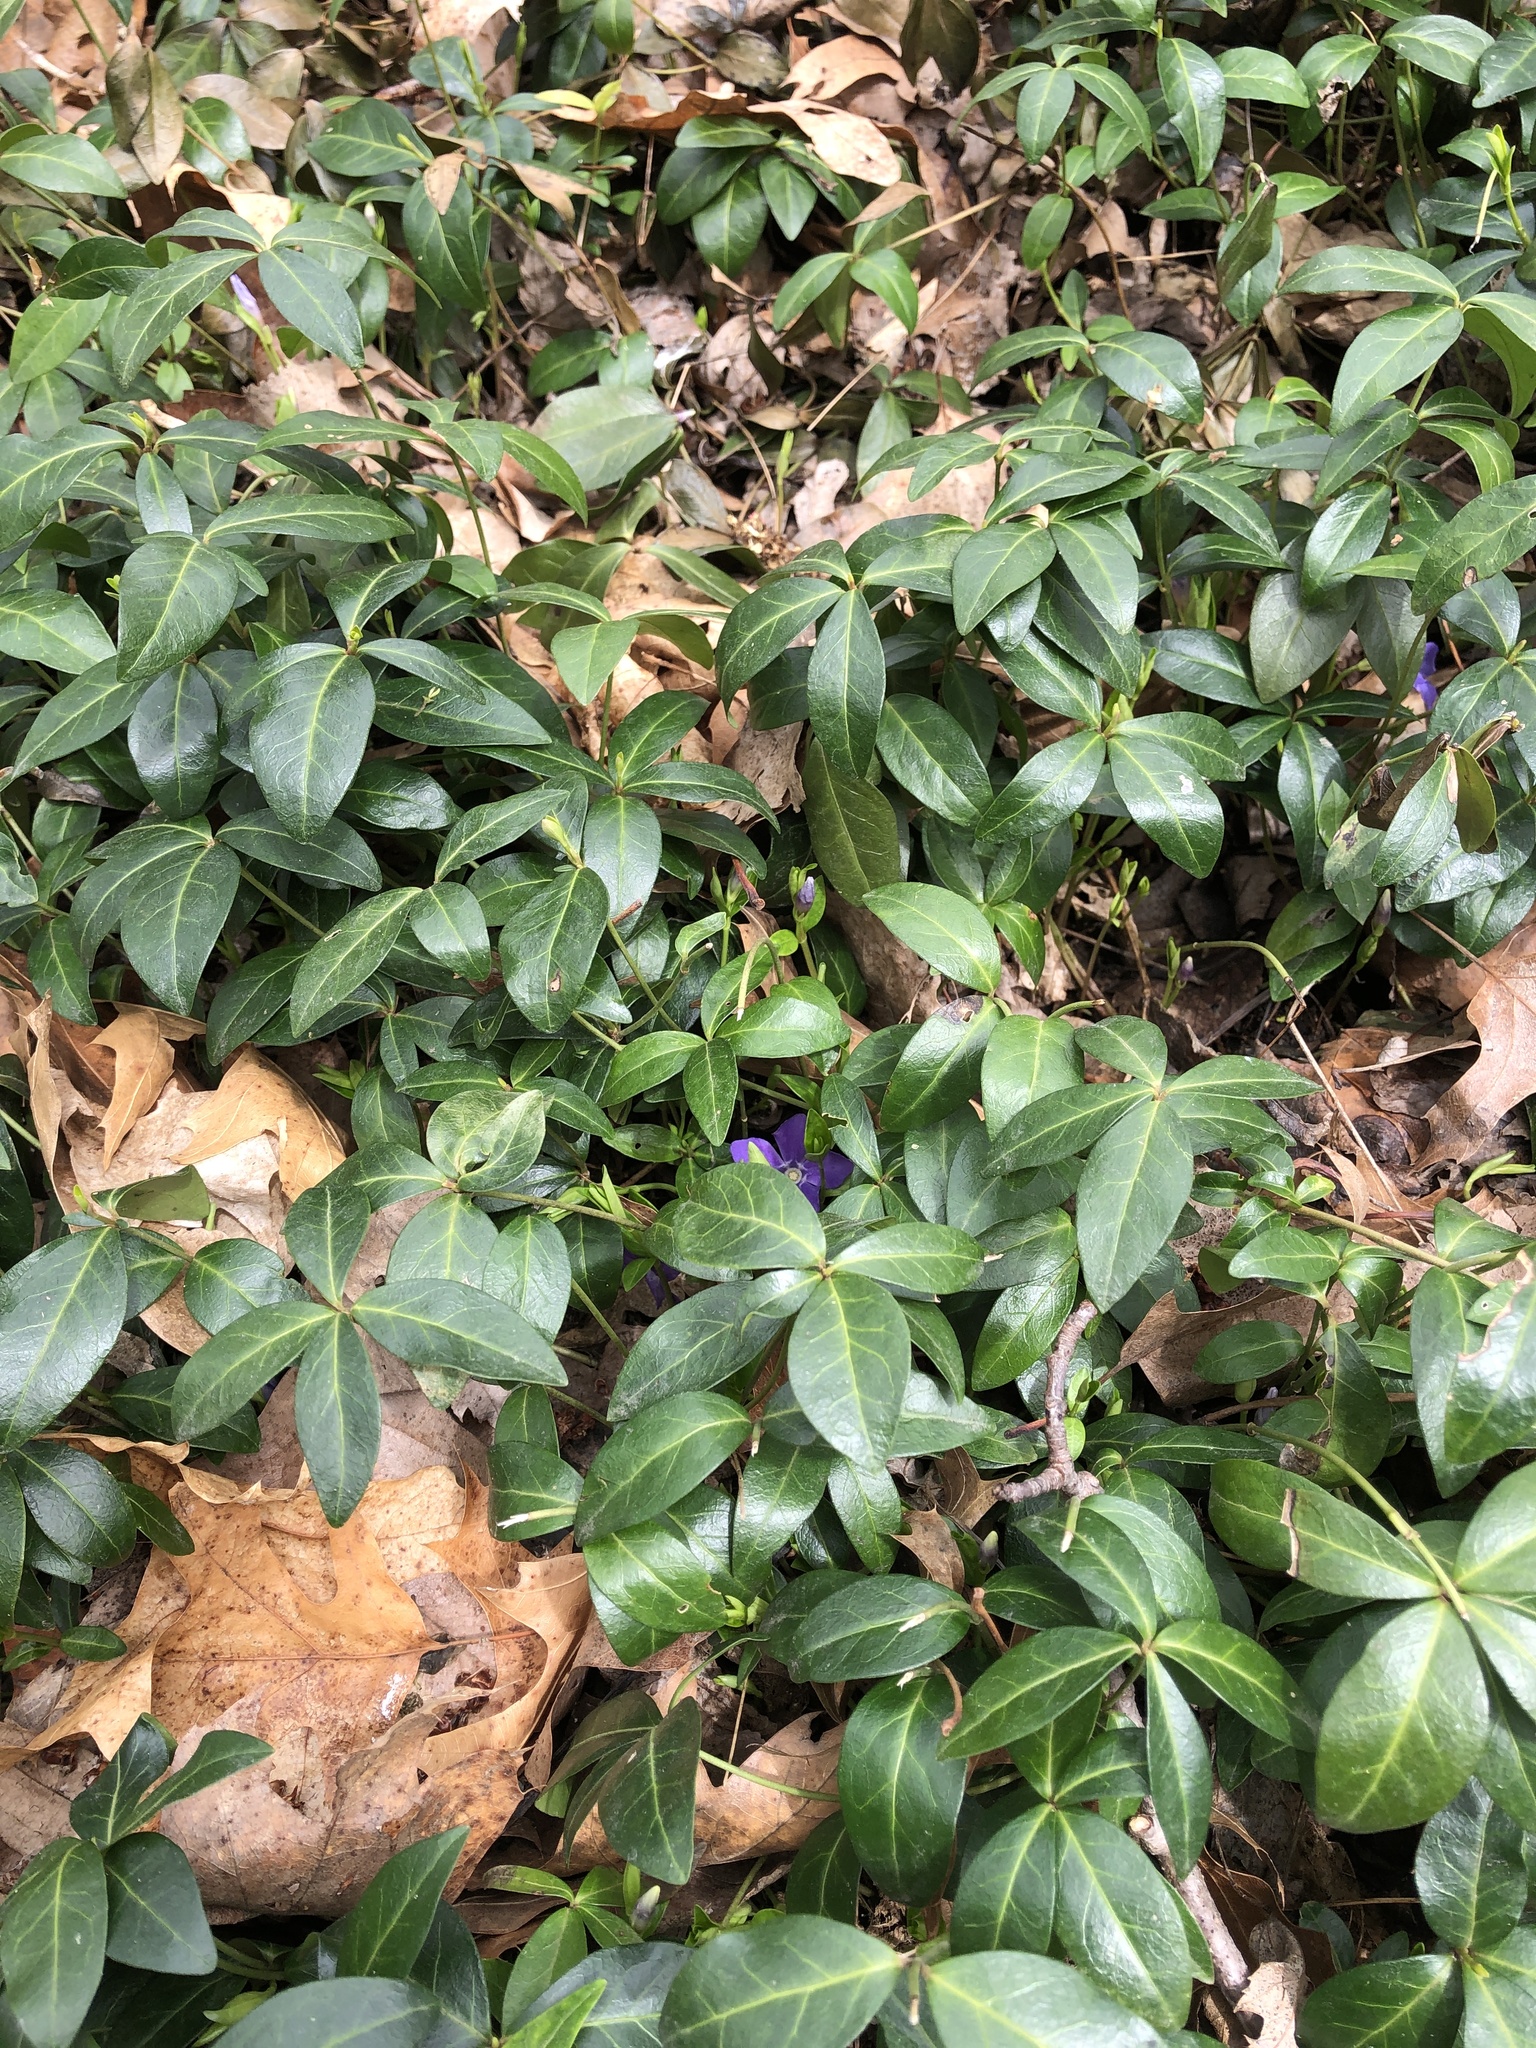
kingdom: Plantae
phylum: Tracheophyta
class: Magnoliopsida
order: Gentianales
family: Apocynaceae
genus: Vinca
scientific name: Vinca minor
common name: Lesser periwinkle
